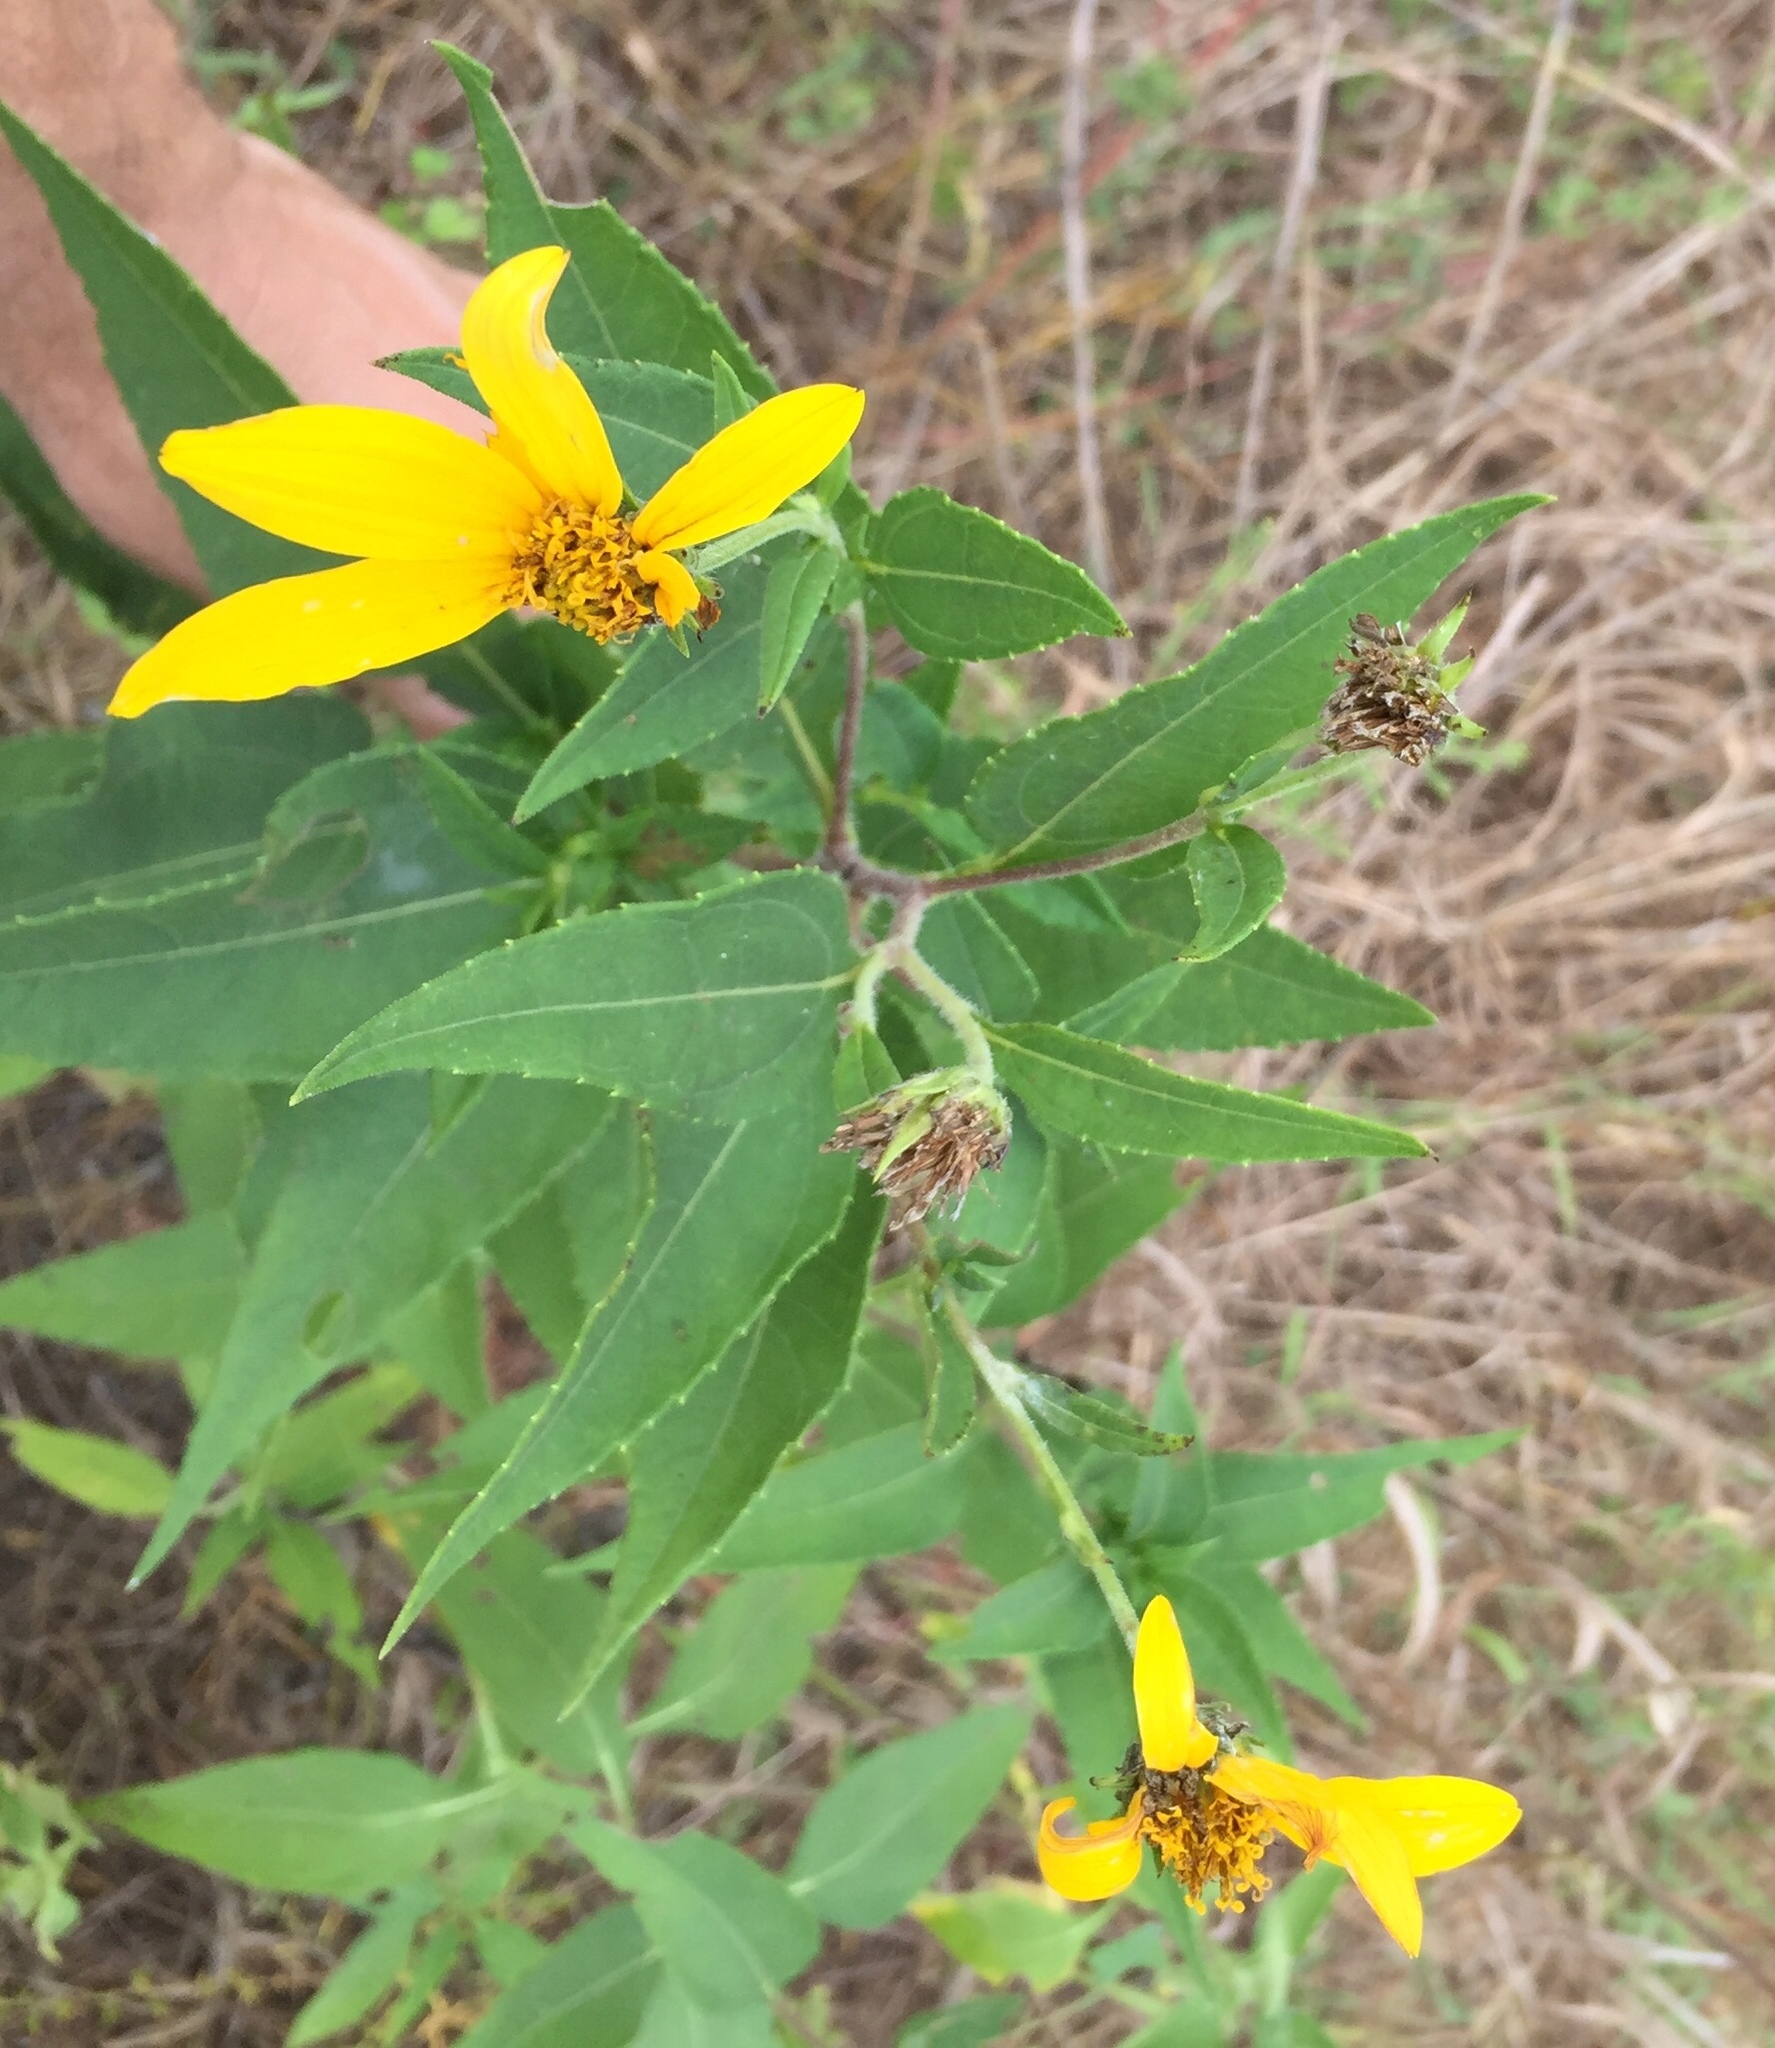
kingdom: Plantae
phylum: Tracheophyta
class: Magnoliopsida
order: Asterales
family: Asteraceae
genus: Helianthus
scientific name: Helianthus tuberosus
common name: Jerusalem artichoke
